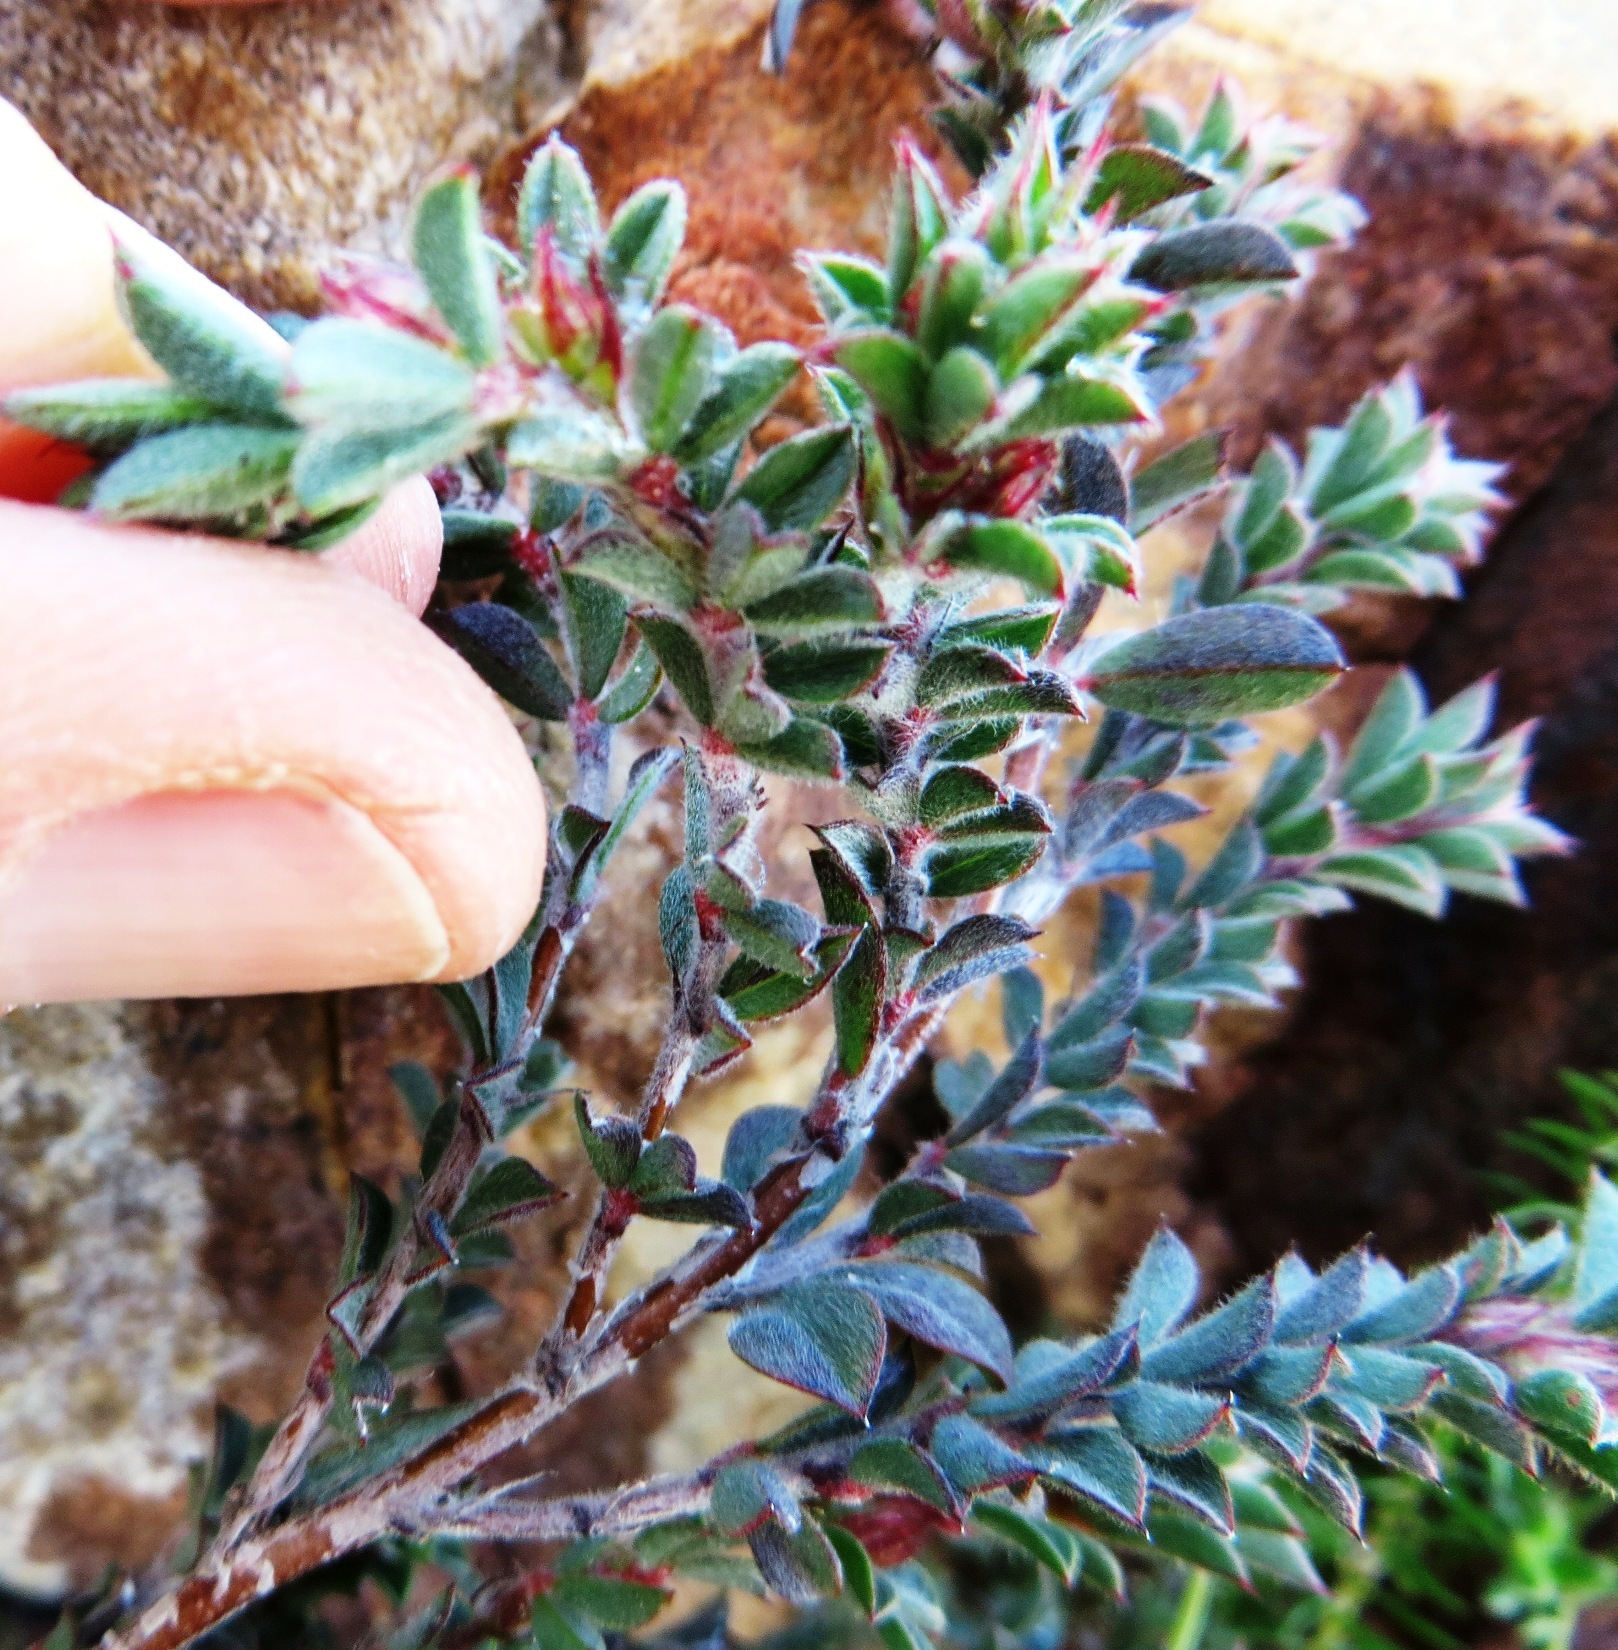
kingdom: Plantae
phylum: Tracheophyta
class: Magnoliopsida
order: Fabales
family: Fabaceae
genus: Indigofera
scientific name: Indigofera glomerata
